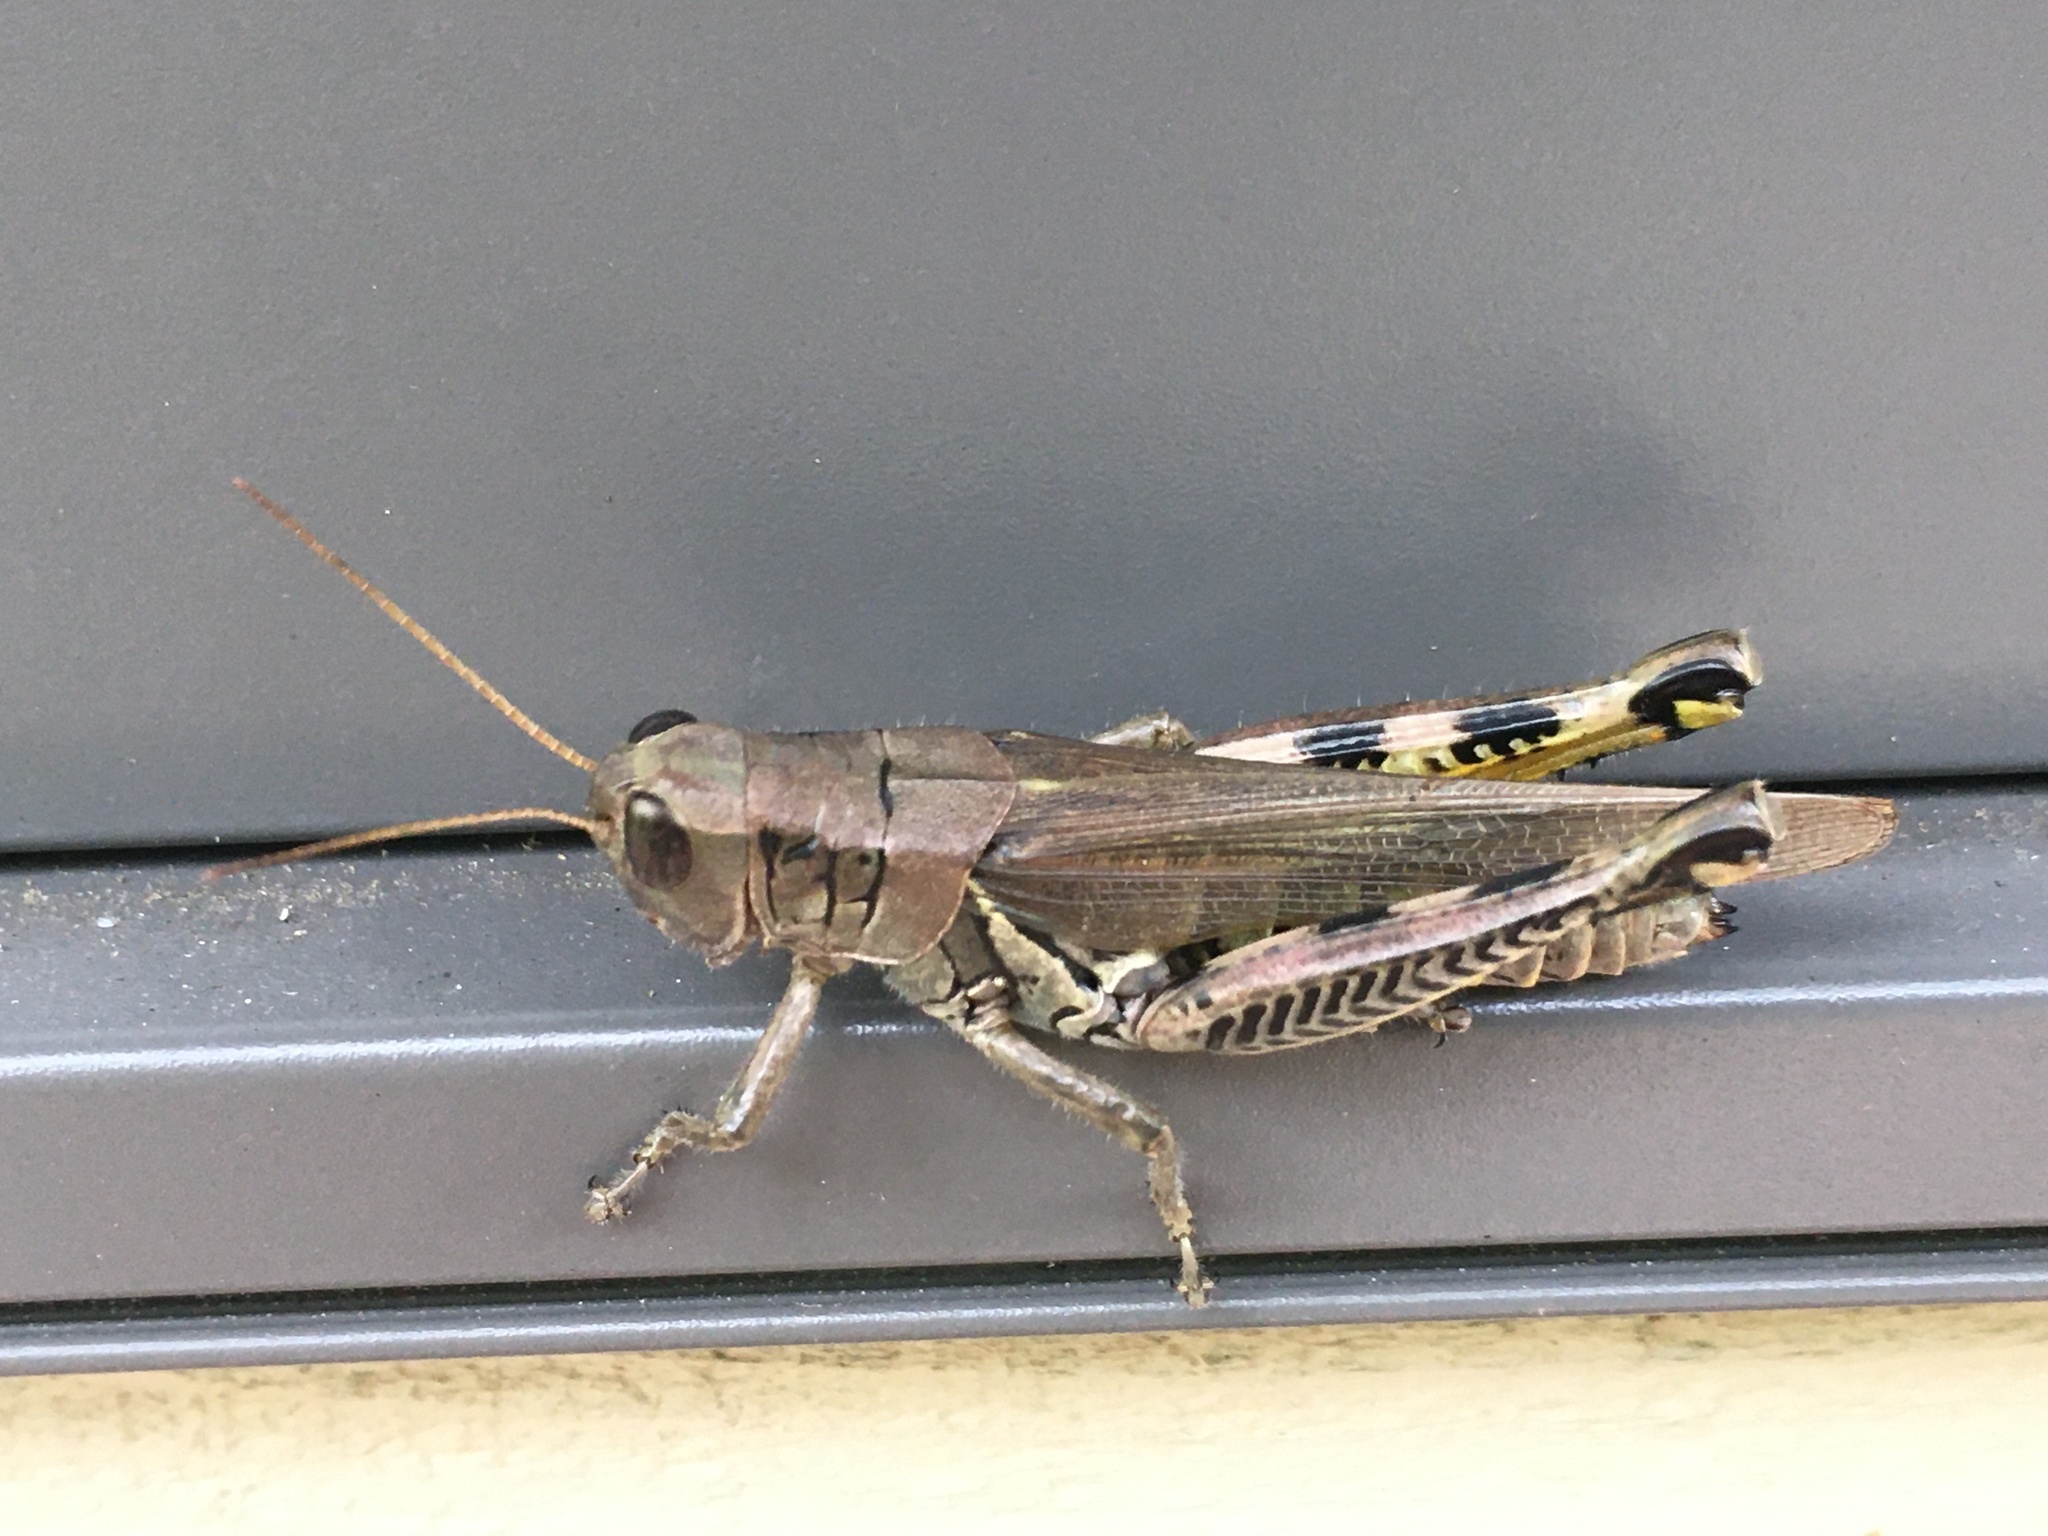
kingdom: Animalia
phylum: Arthropoda
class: Insecta
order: Orthoptera
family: Acrididae
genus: Melanoplus
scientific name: Melanoplus differentialis
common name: Differential grasshopper
